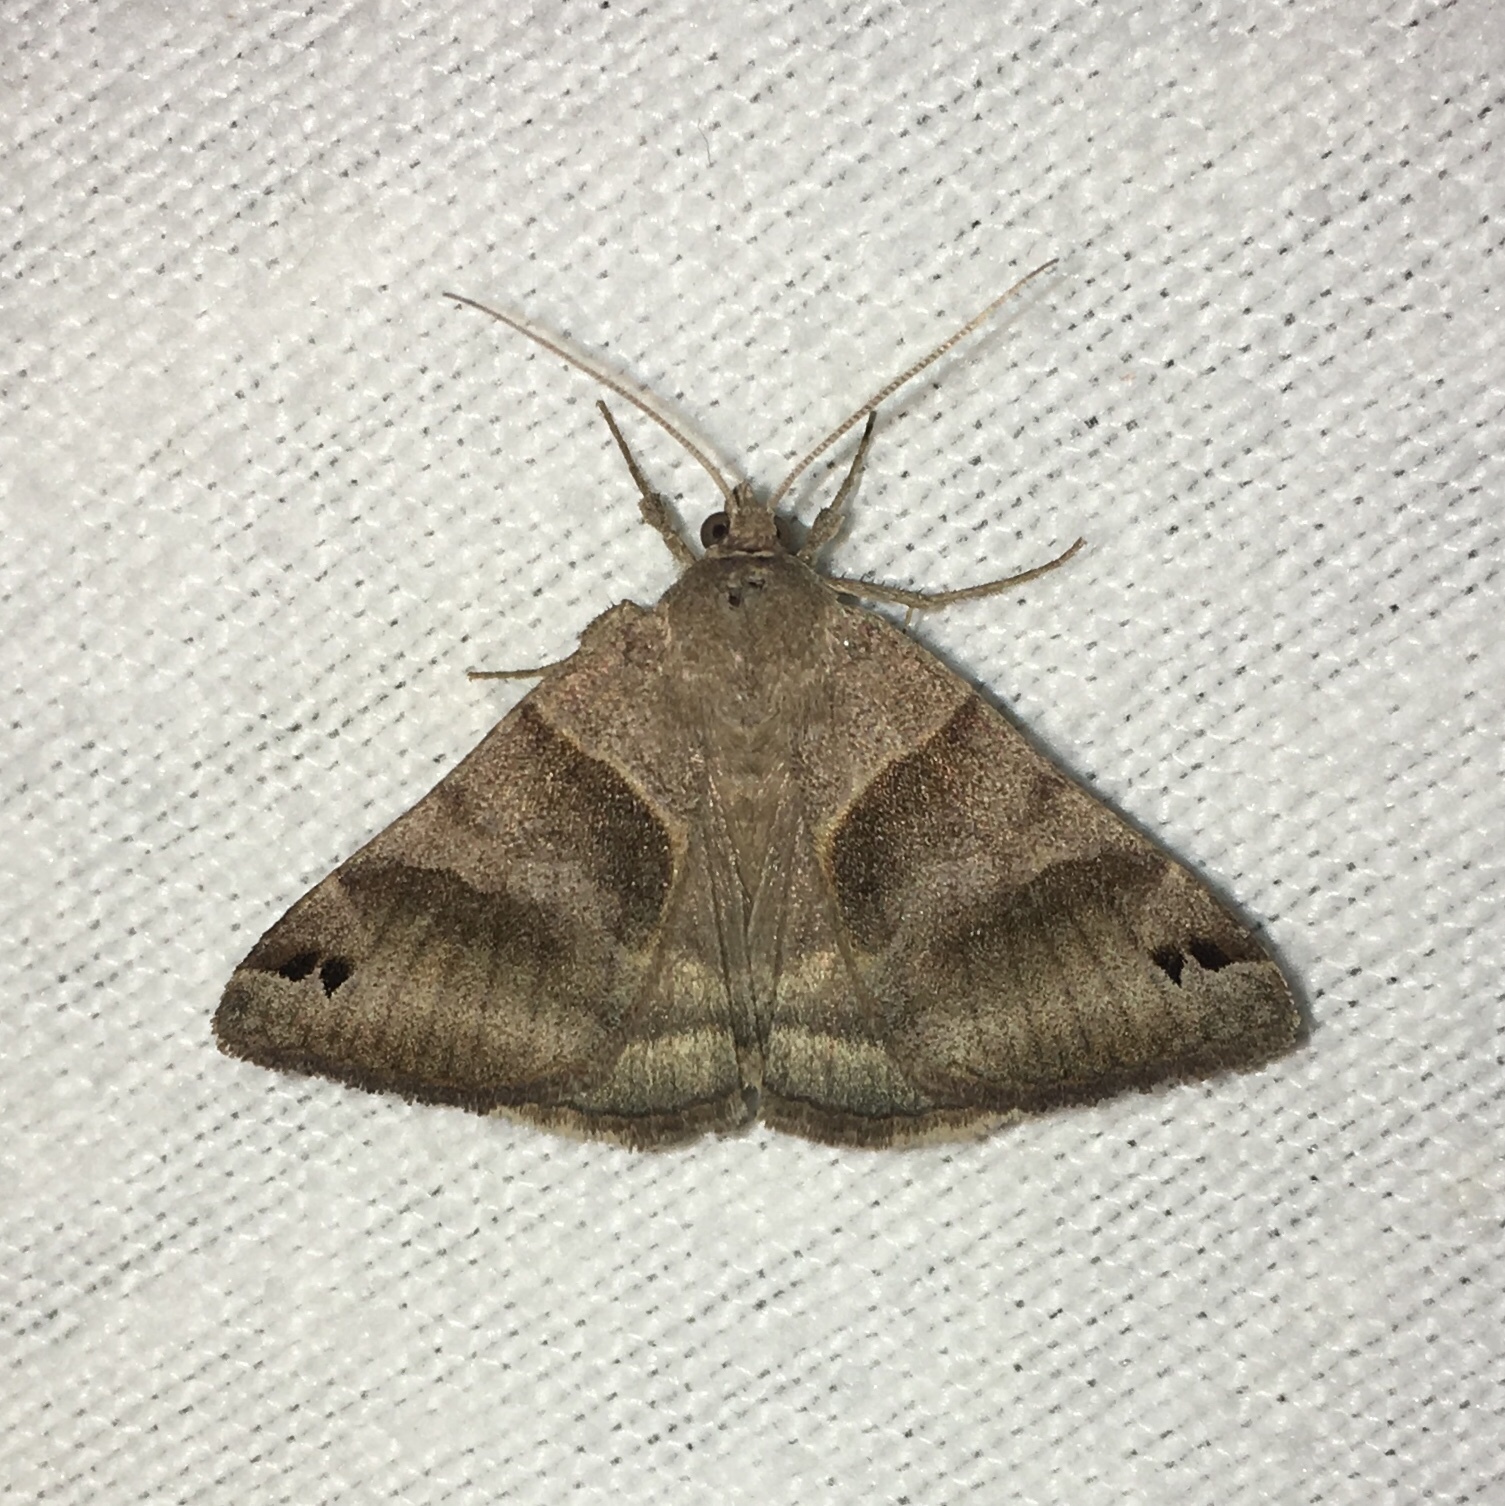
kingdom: Animalia
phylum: Arthropoda
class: Insecta
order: Lepidoptera
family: Erebidae
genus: Caenurgina
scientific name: Caenurgina erechtea
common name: Forage looper moth
